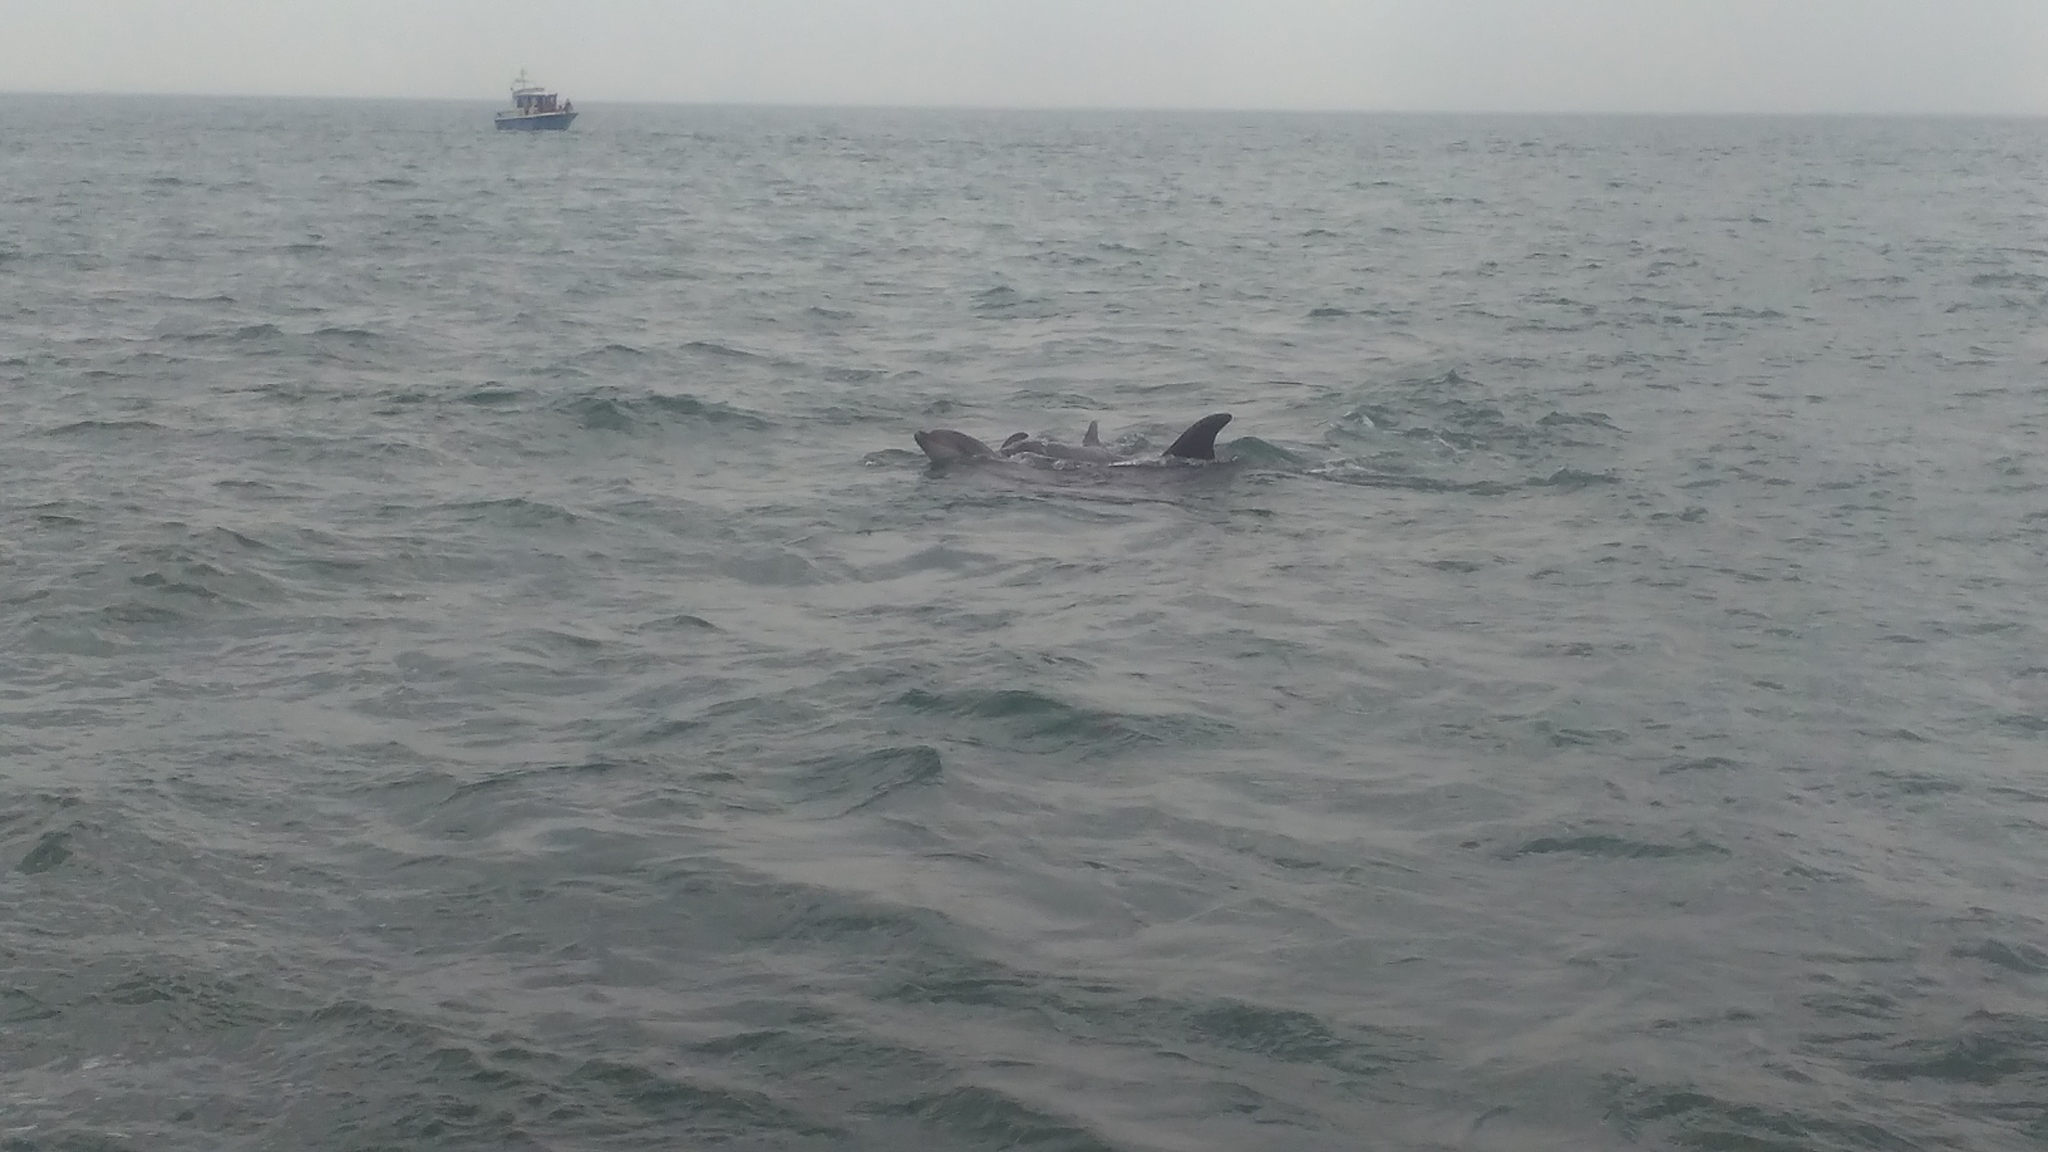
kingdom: Animalia
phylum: Chordata
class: Mammalia
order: Cetacea
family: Delphinidae
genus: Tursiops
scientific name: Tursiops truncatus
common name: Bottlenose dolphin
